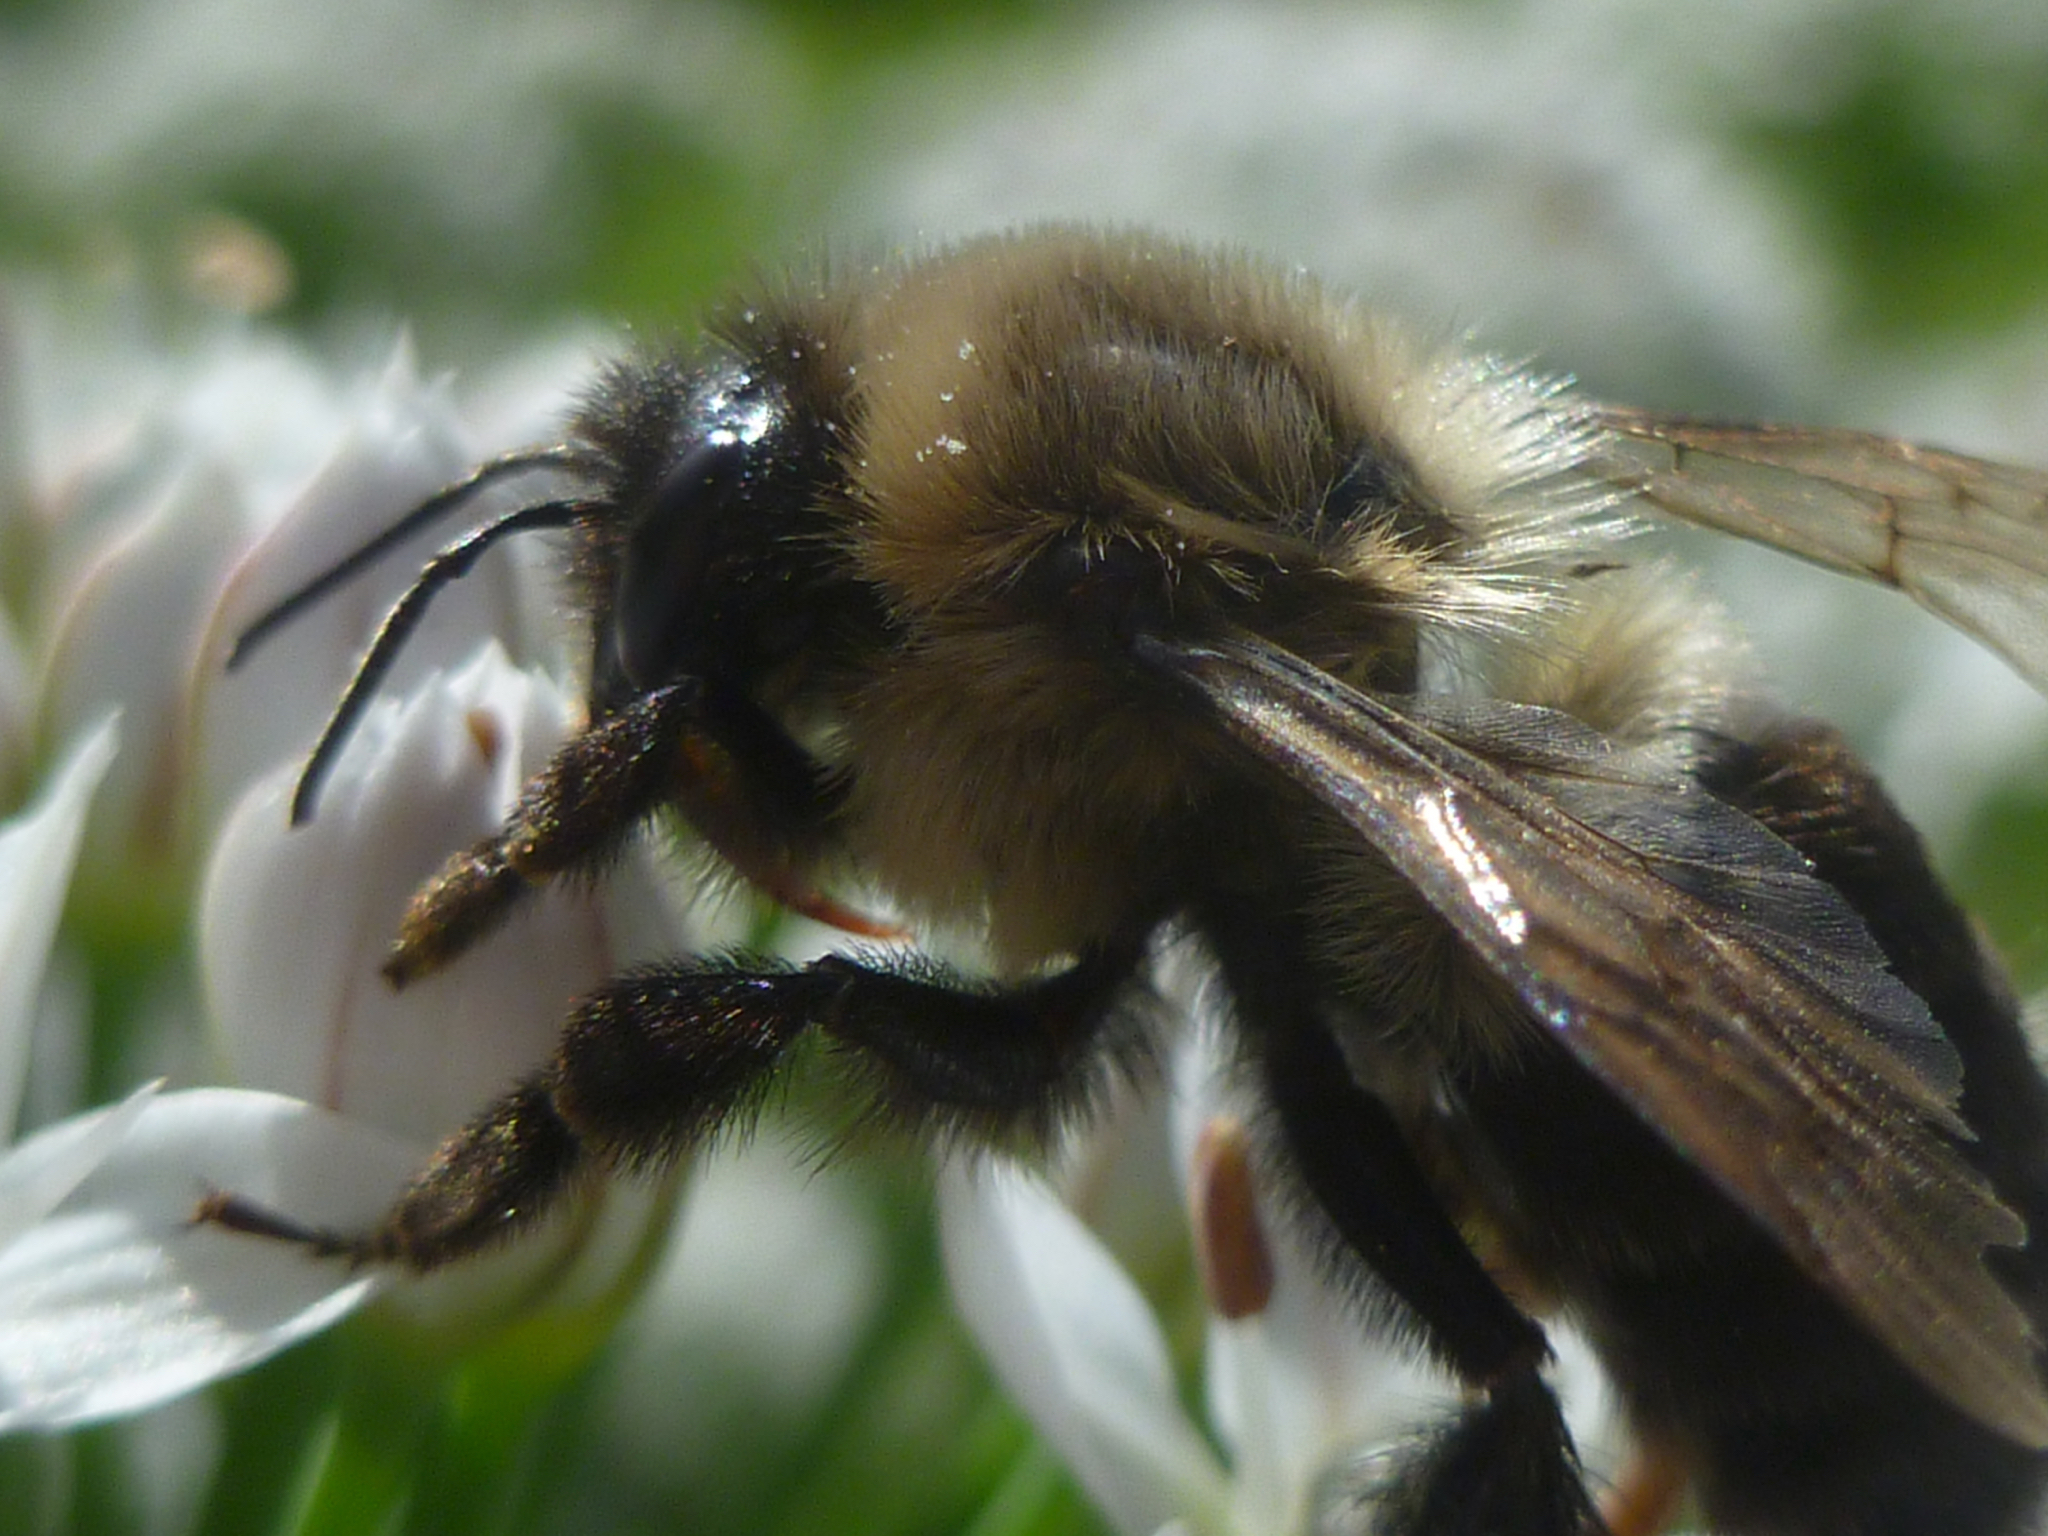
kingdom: Animalia
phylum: Arthropoda
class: Insecta
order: Hymenoptera
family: Apidae
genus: Bombus
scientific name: Bombus impatiens
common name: Common eastern bumble bee
